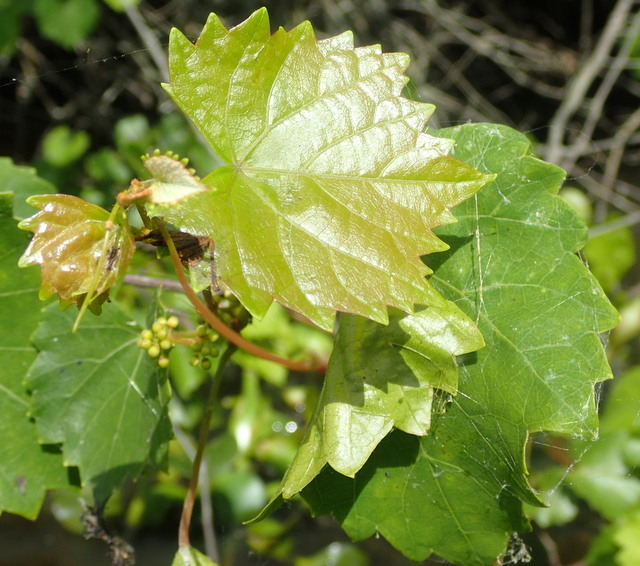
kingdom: Plantae
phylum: Tracheophyta
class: Magnoliopsida
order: Vitales
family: Vitaceae
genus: Vitis
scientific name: Vitis rotundifolia
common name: Muscadine grape
